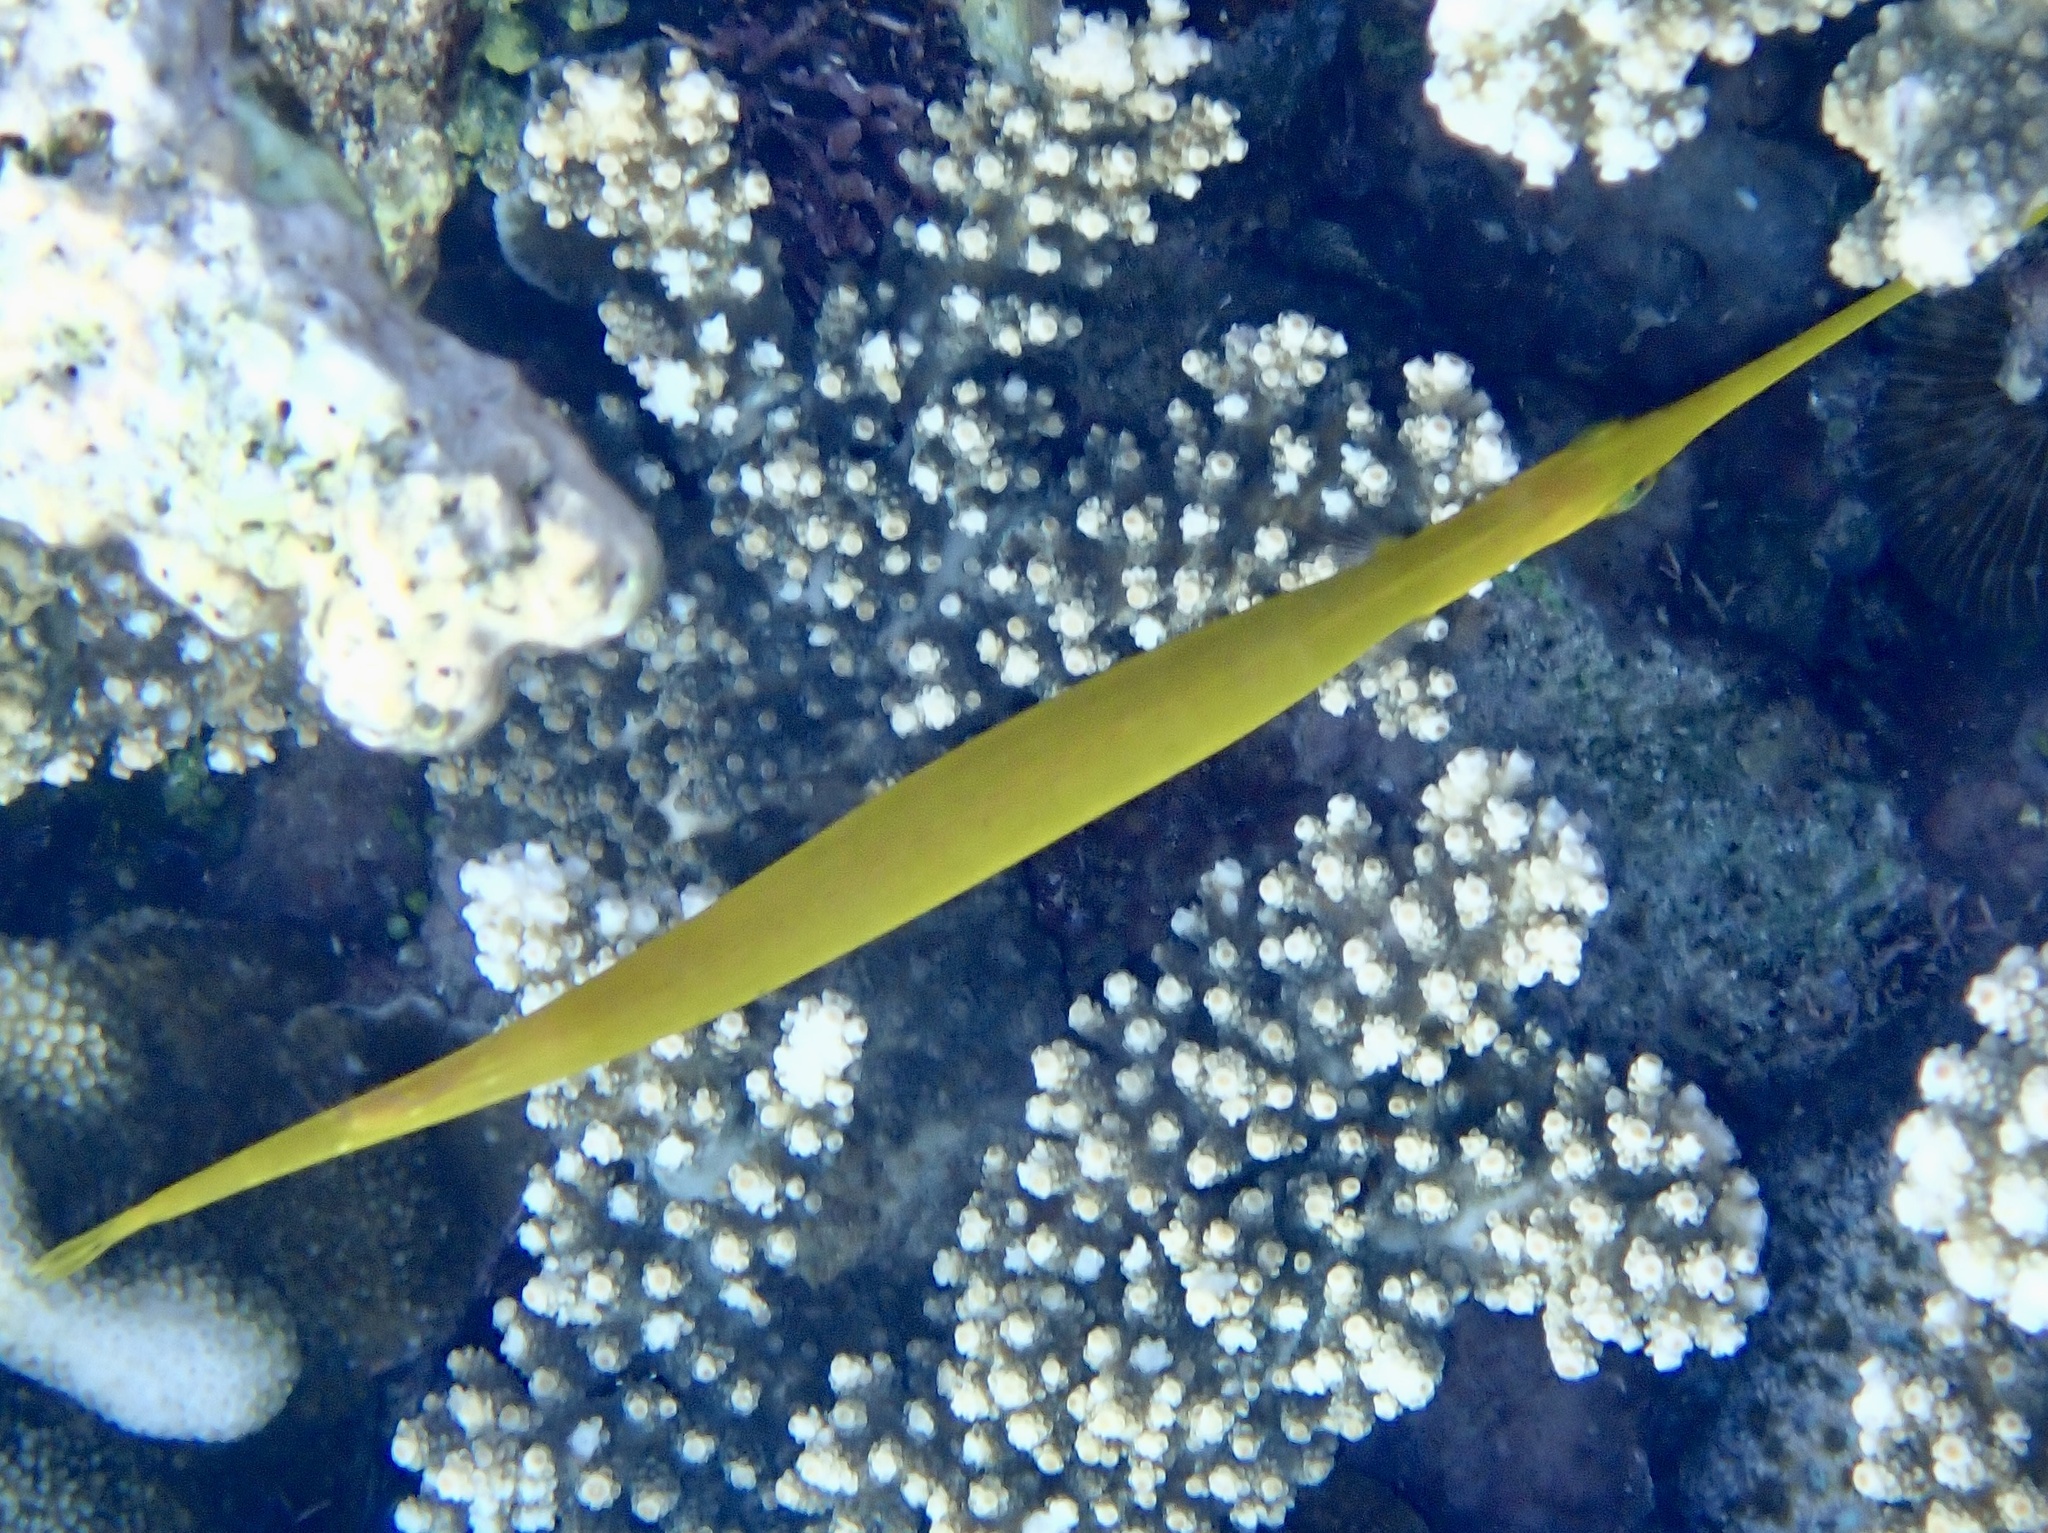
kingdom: Animalia
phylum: Chordata
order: Syngnathiformes
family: Aulostomidae
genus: Aulostomus
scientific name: Aulostomus chinensis
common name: Chinese trumpetfish
